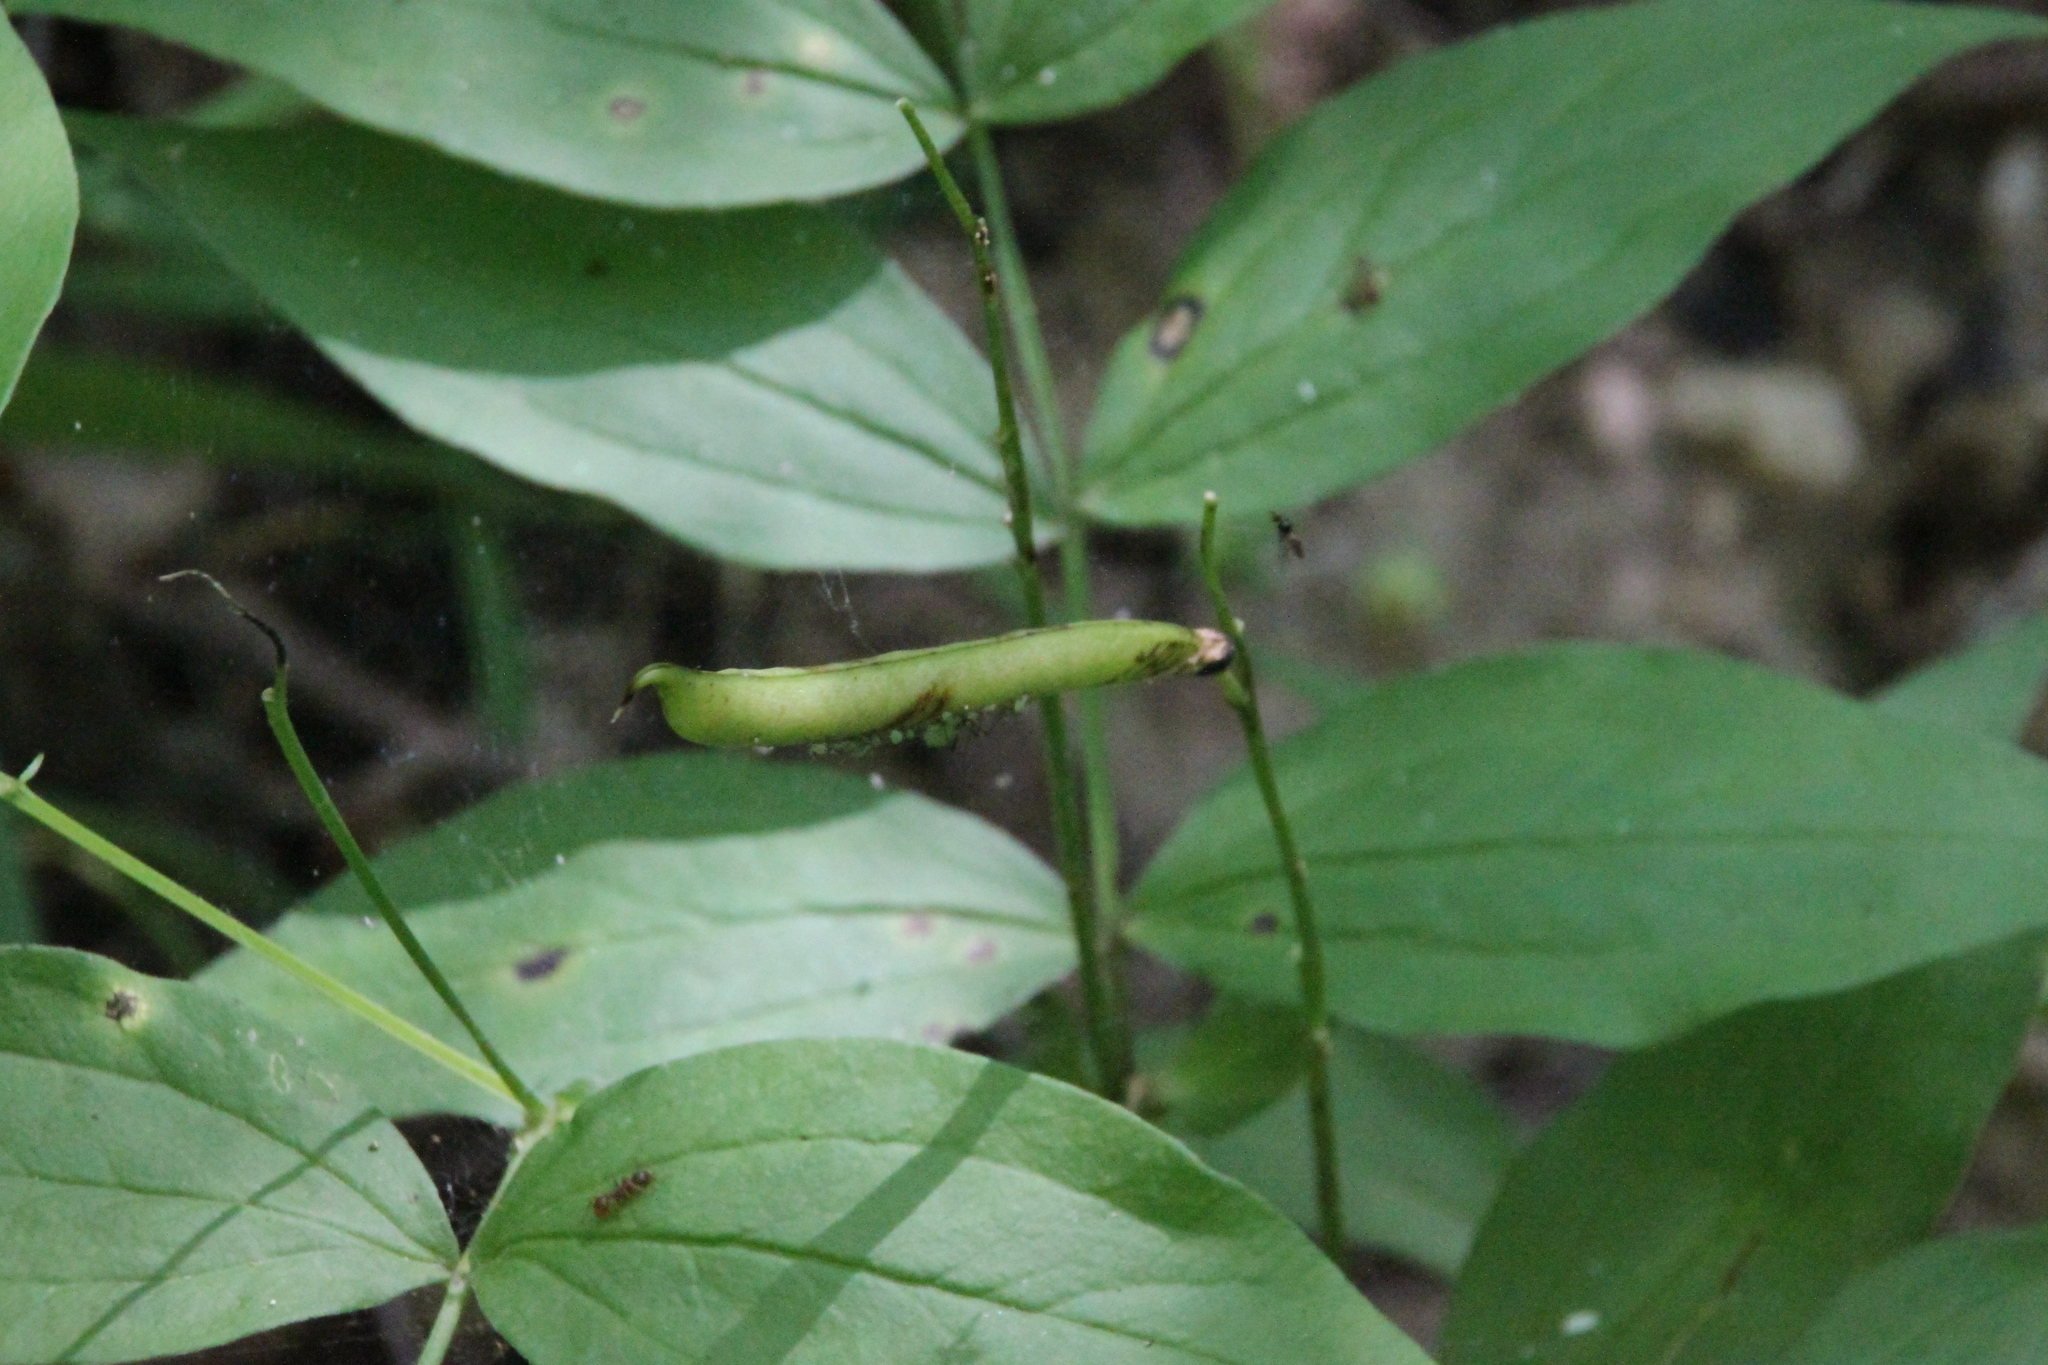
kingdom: Plantae
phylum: Tracheophyta
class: Magnoliopsida
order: Fabales
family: Fabaceae
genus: Lathyrus
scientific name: Lathyrus vernus
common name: Spring pea
